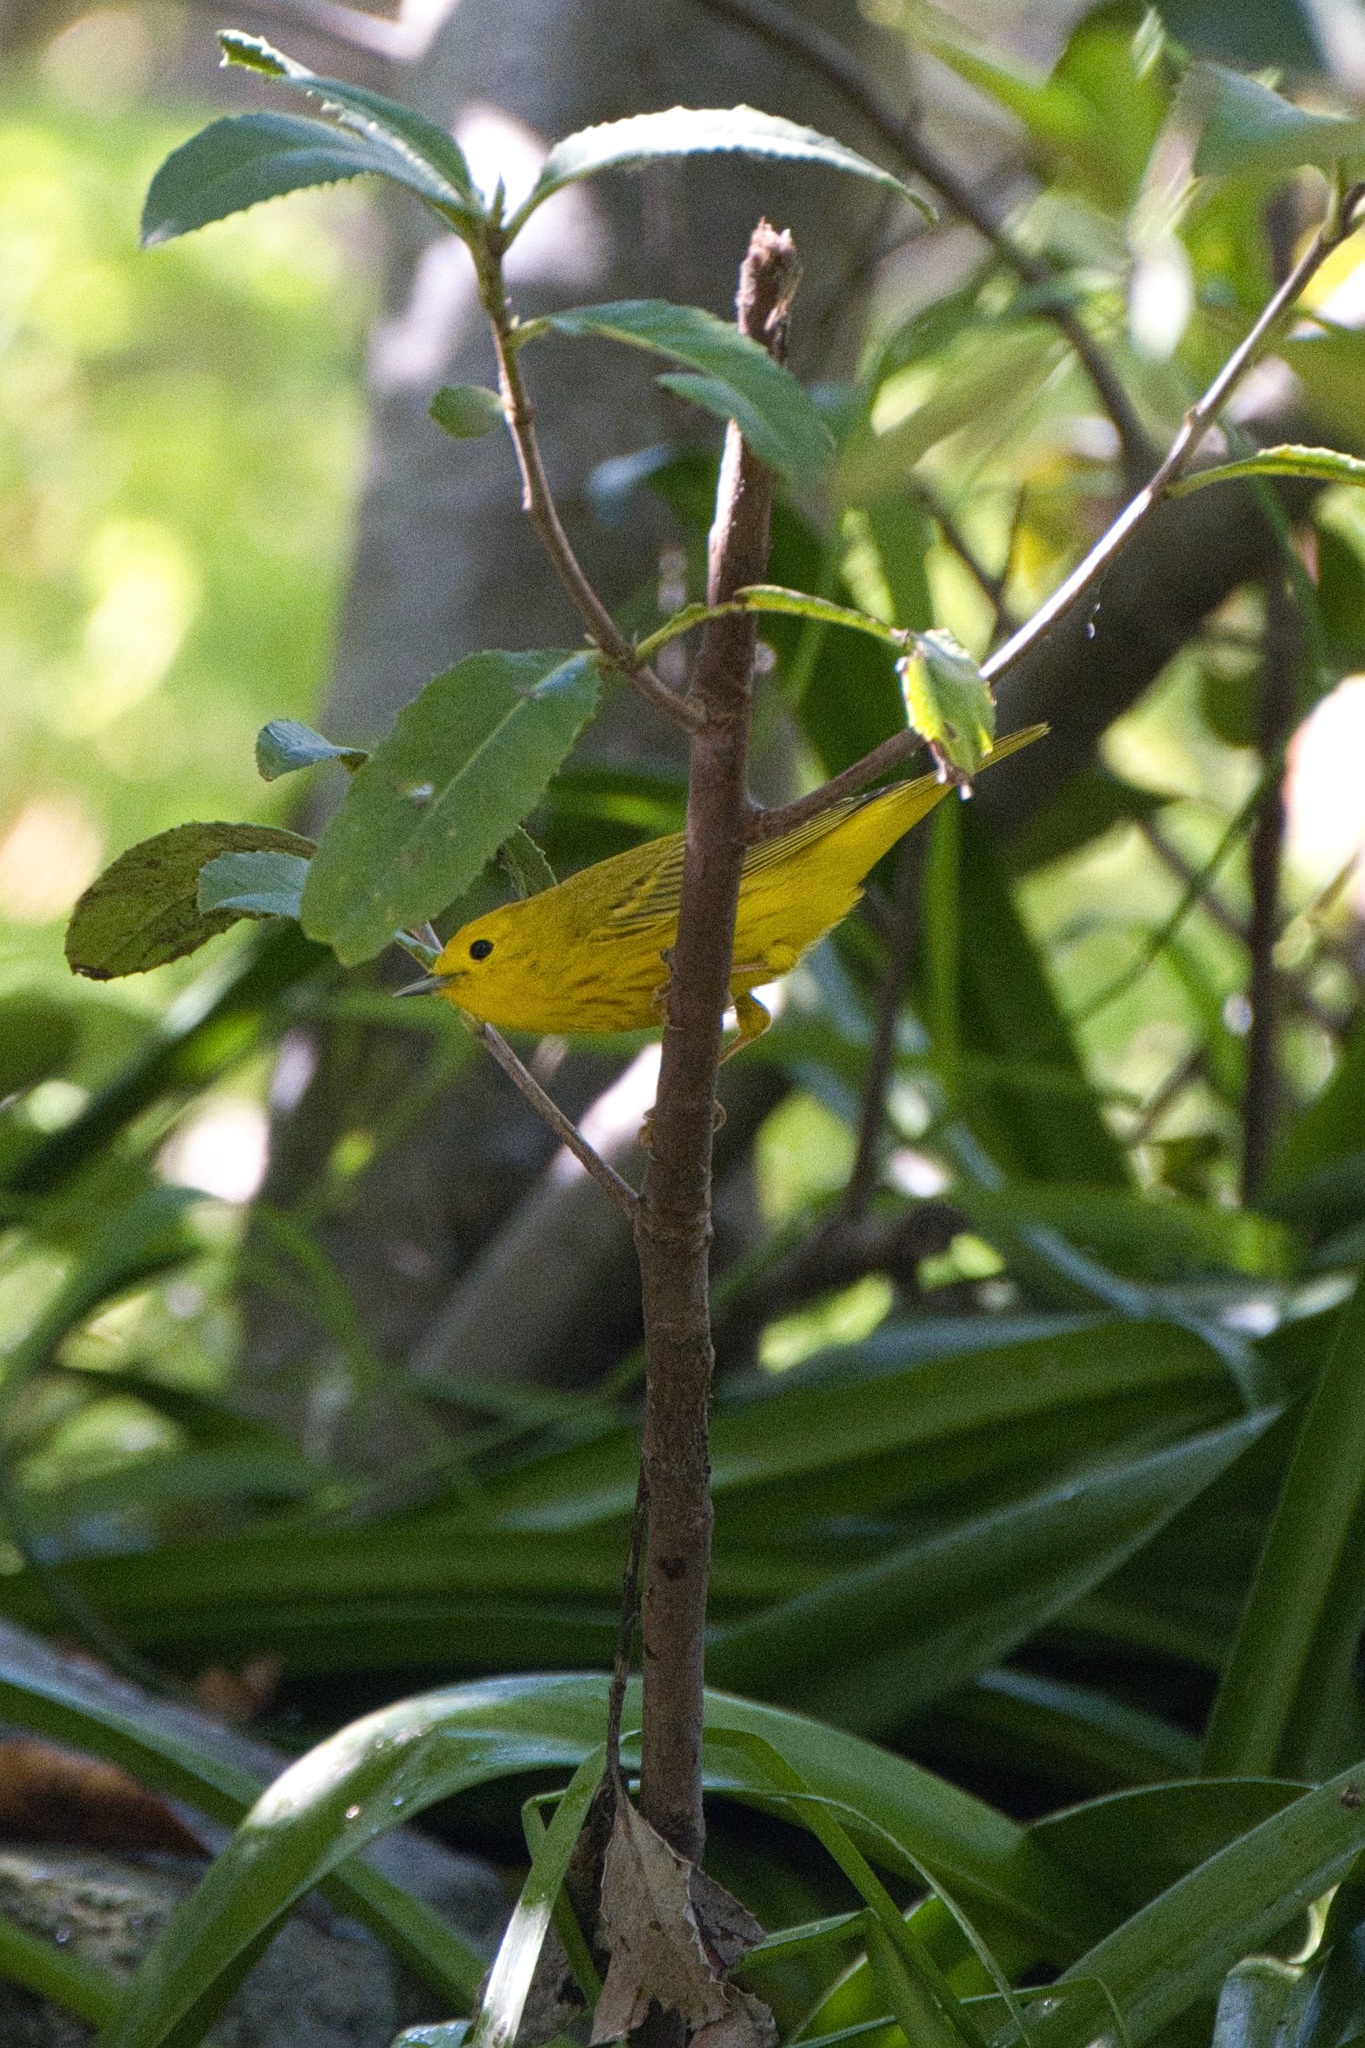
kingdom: Animalia
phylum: Chordata
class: Aves
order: Passeriformes
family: Parulidae
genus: Setophaga
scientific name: Setophaga petechia
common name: Yellow warbler
